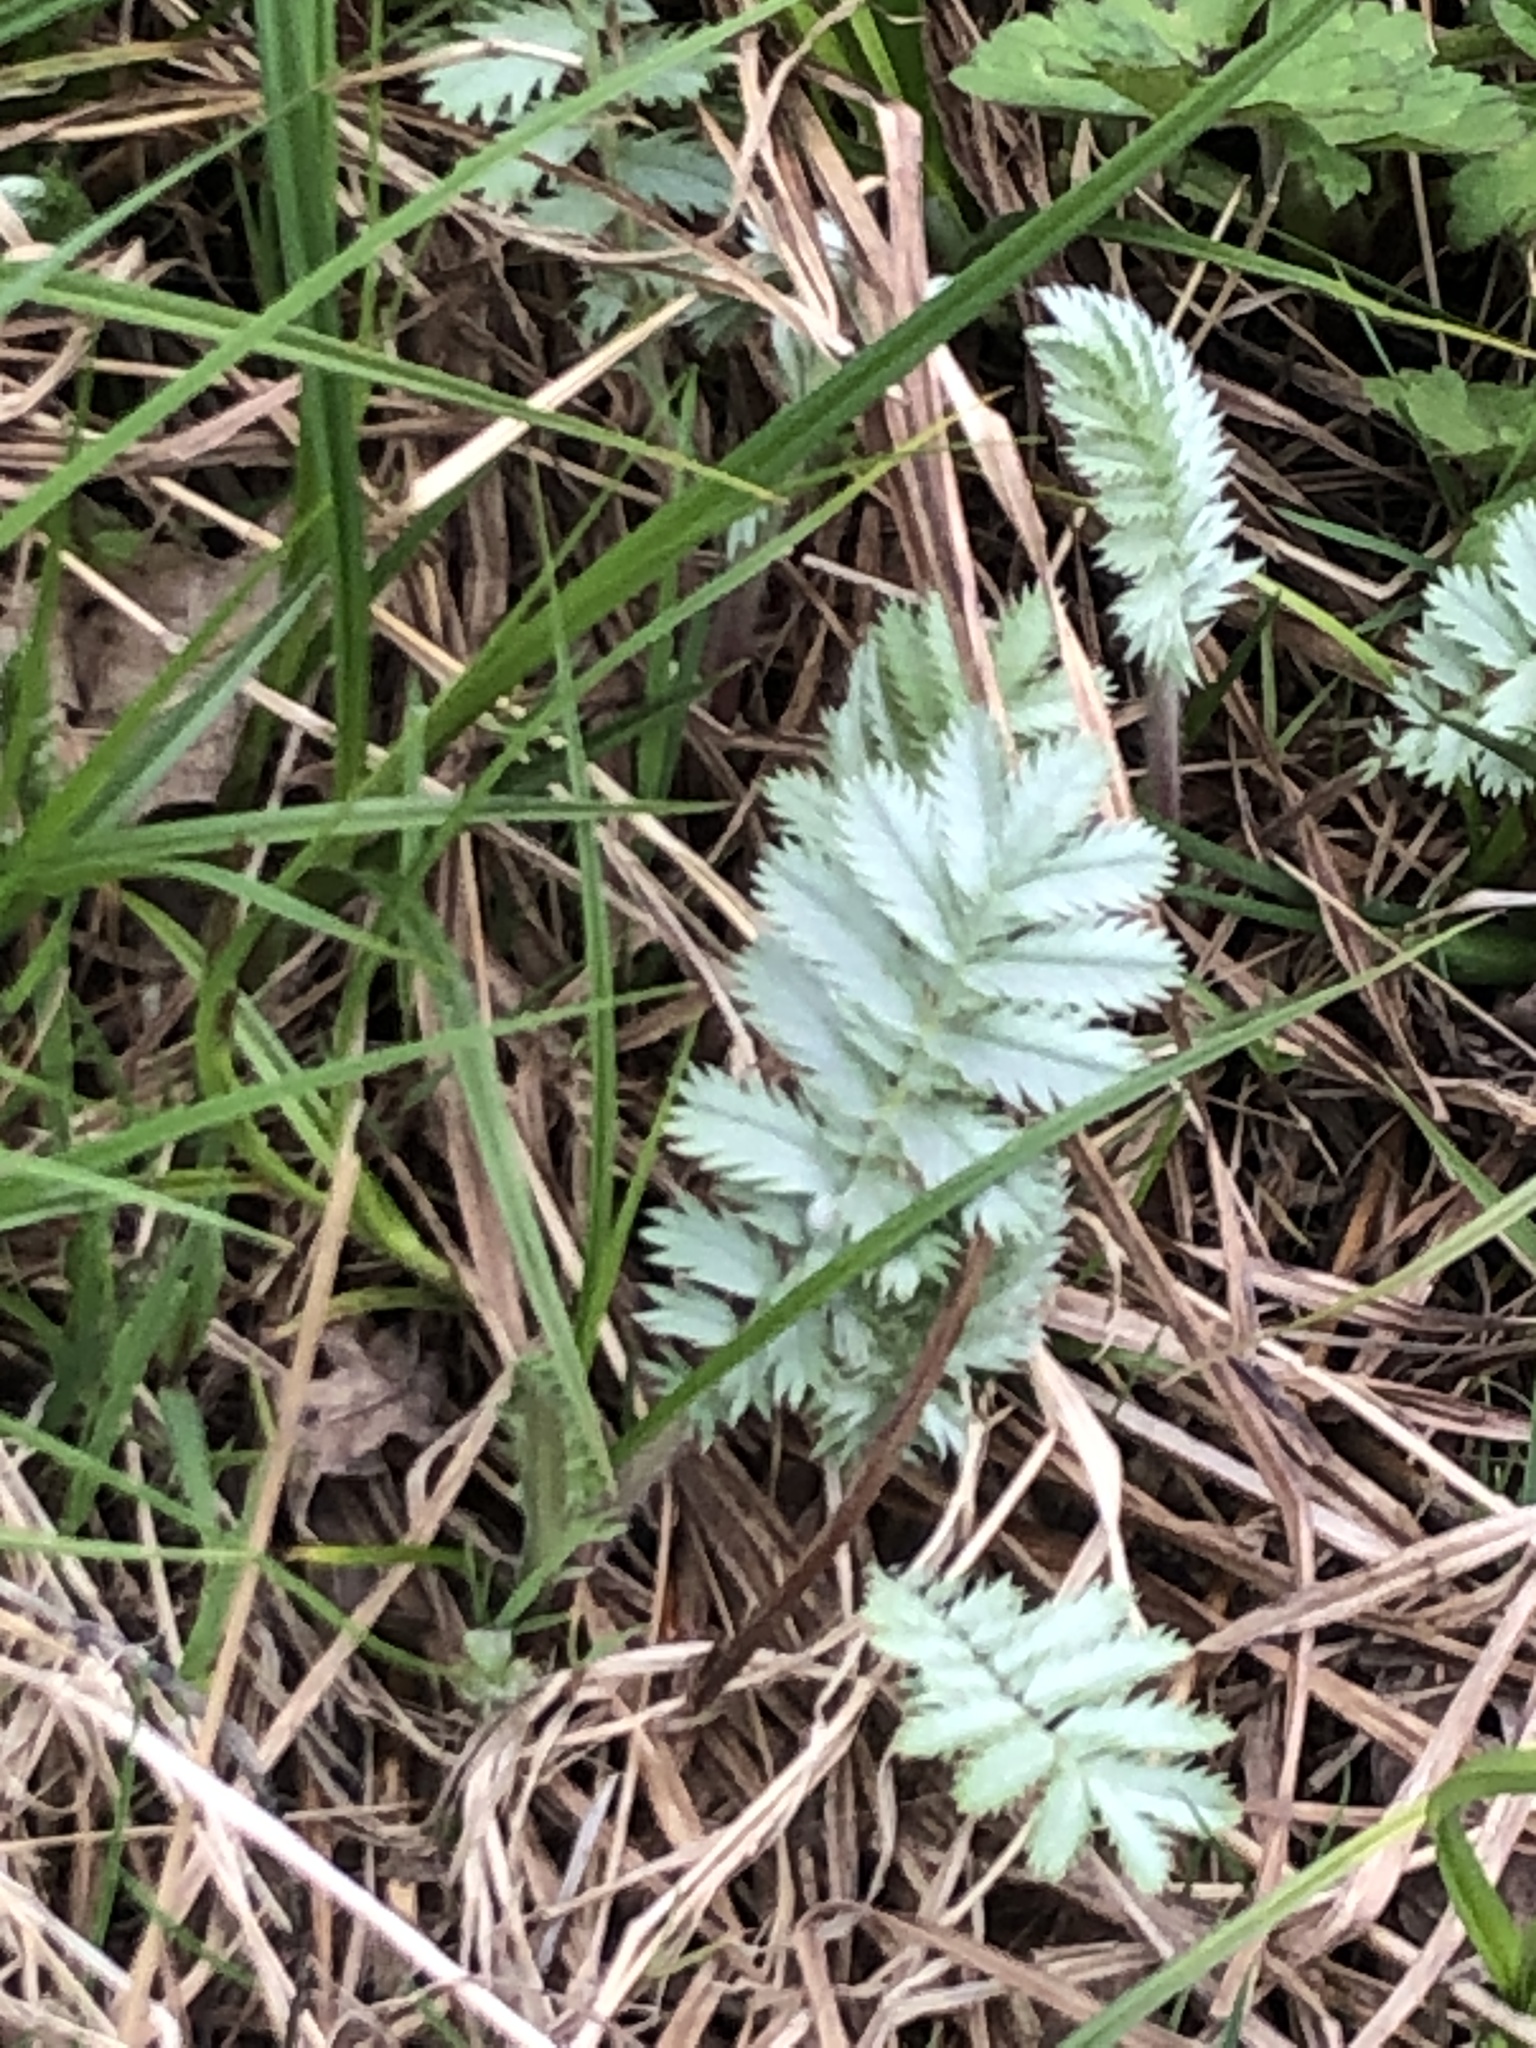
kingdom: Plantae
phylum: Tracheophyta
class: Magnoliopsida
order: Rosales
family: Rosaceae
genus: Argentina
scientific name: Argentina anserina
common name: Common silverweed
